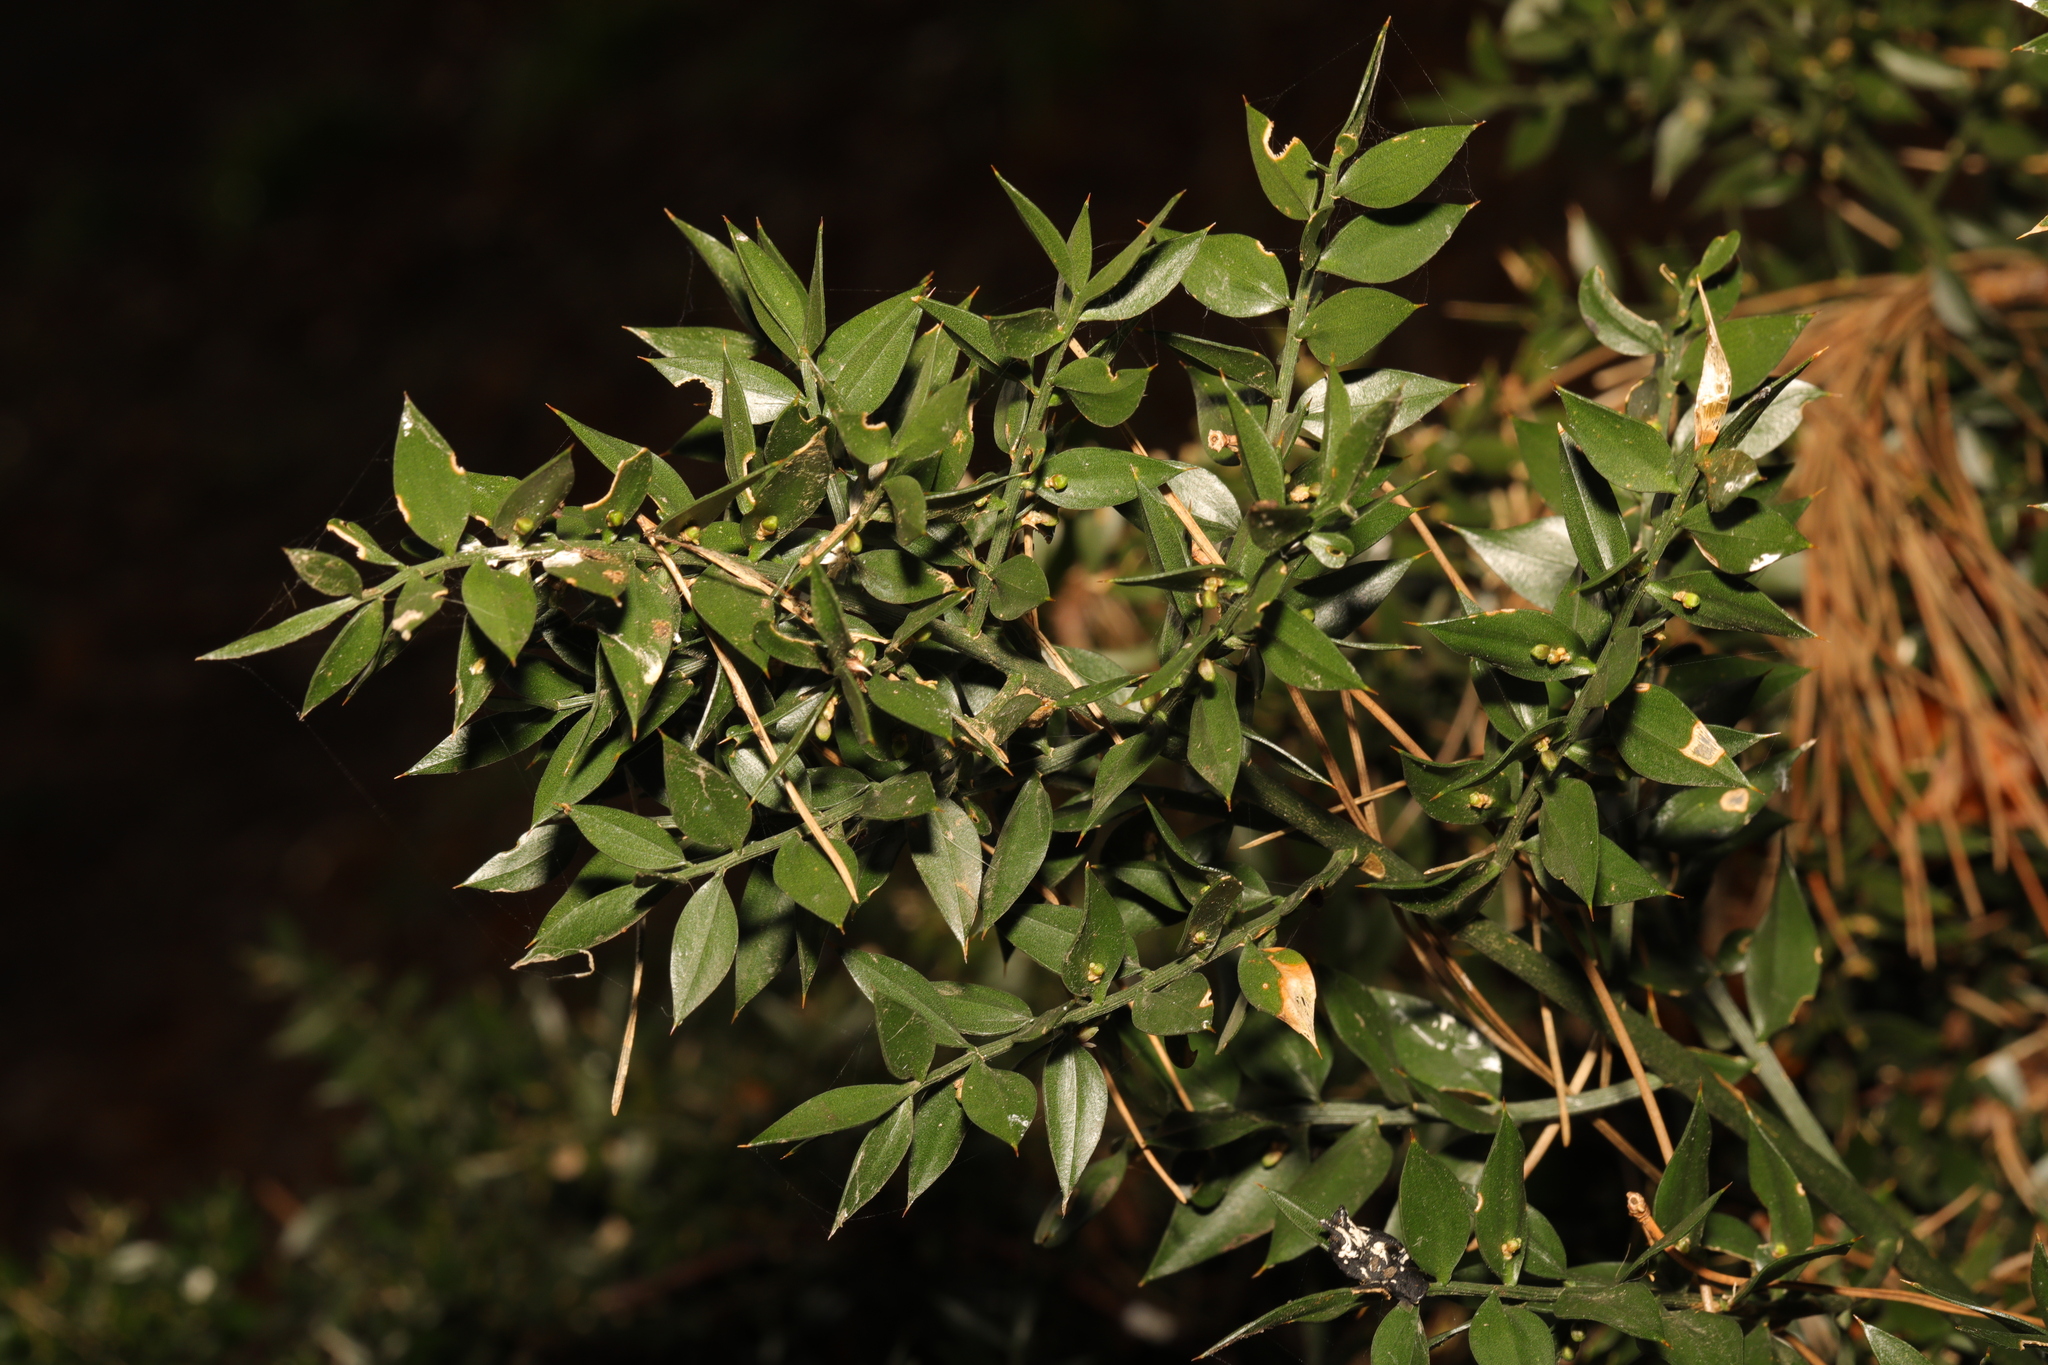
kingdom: Plantae
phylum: Tracheophyta
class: Liliopsida
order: Asparagales
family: Asparagaceae
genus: Ruscus
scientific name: Ruscus aculeatus
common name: Butcher's-broom
